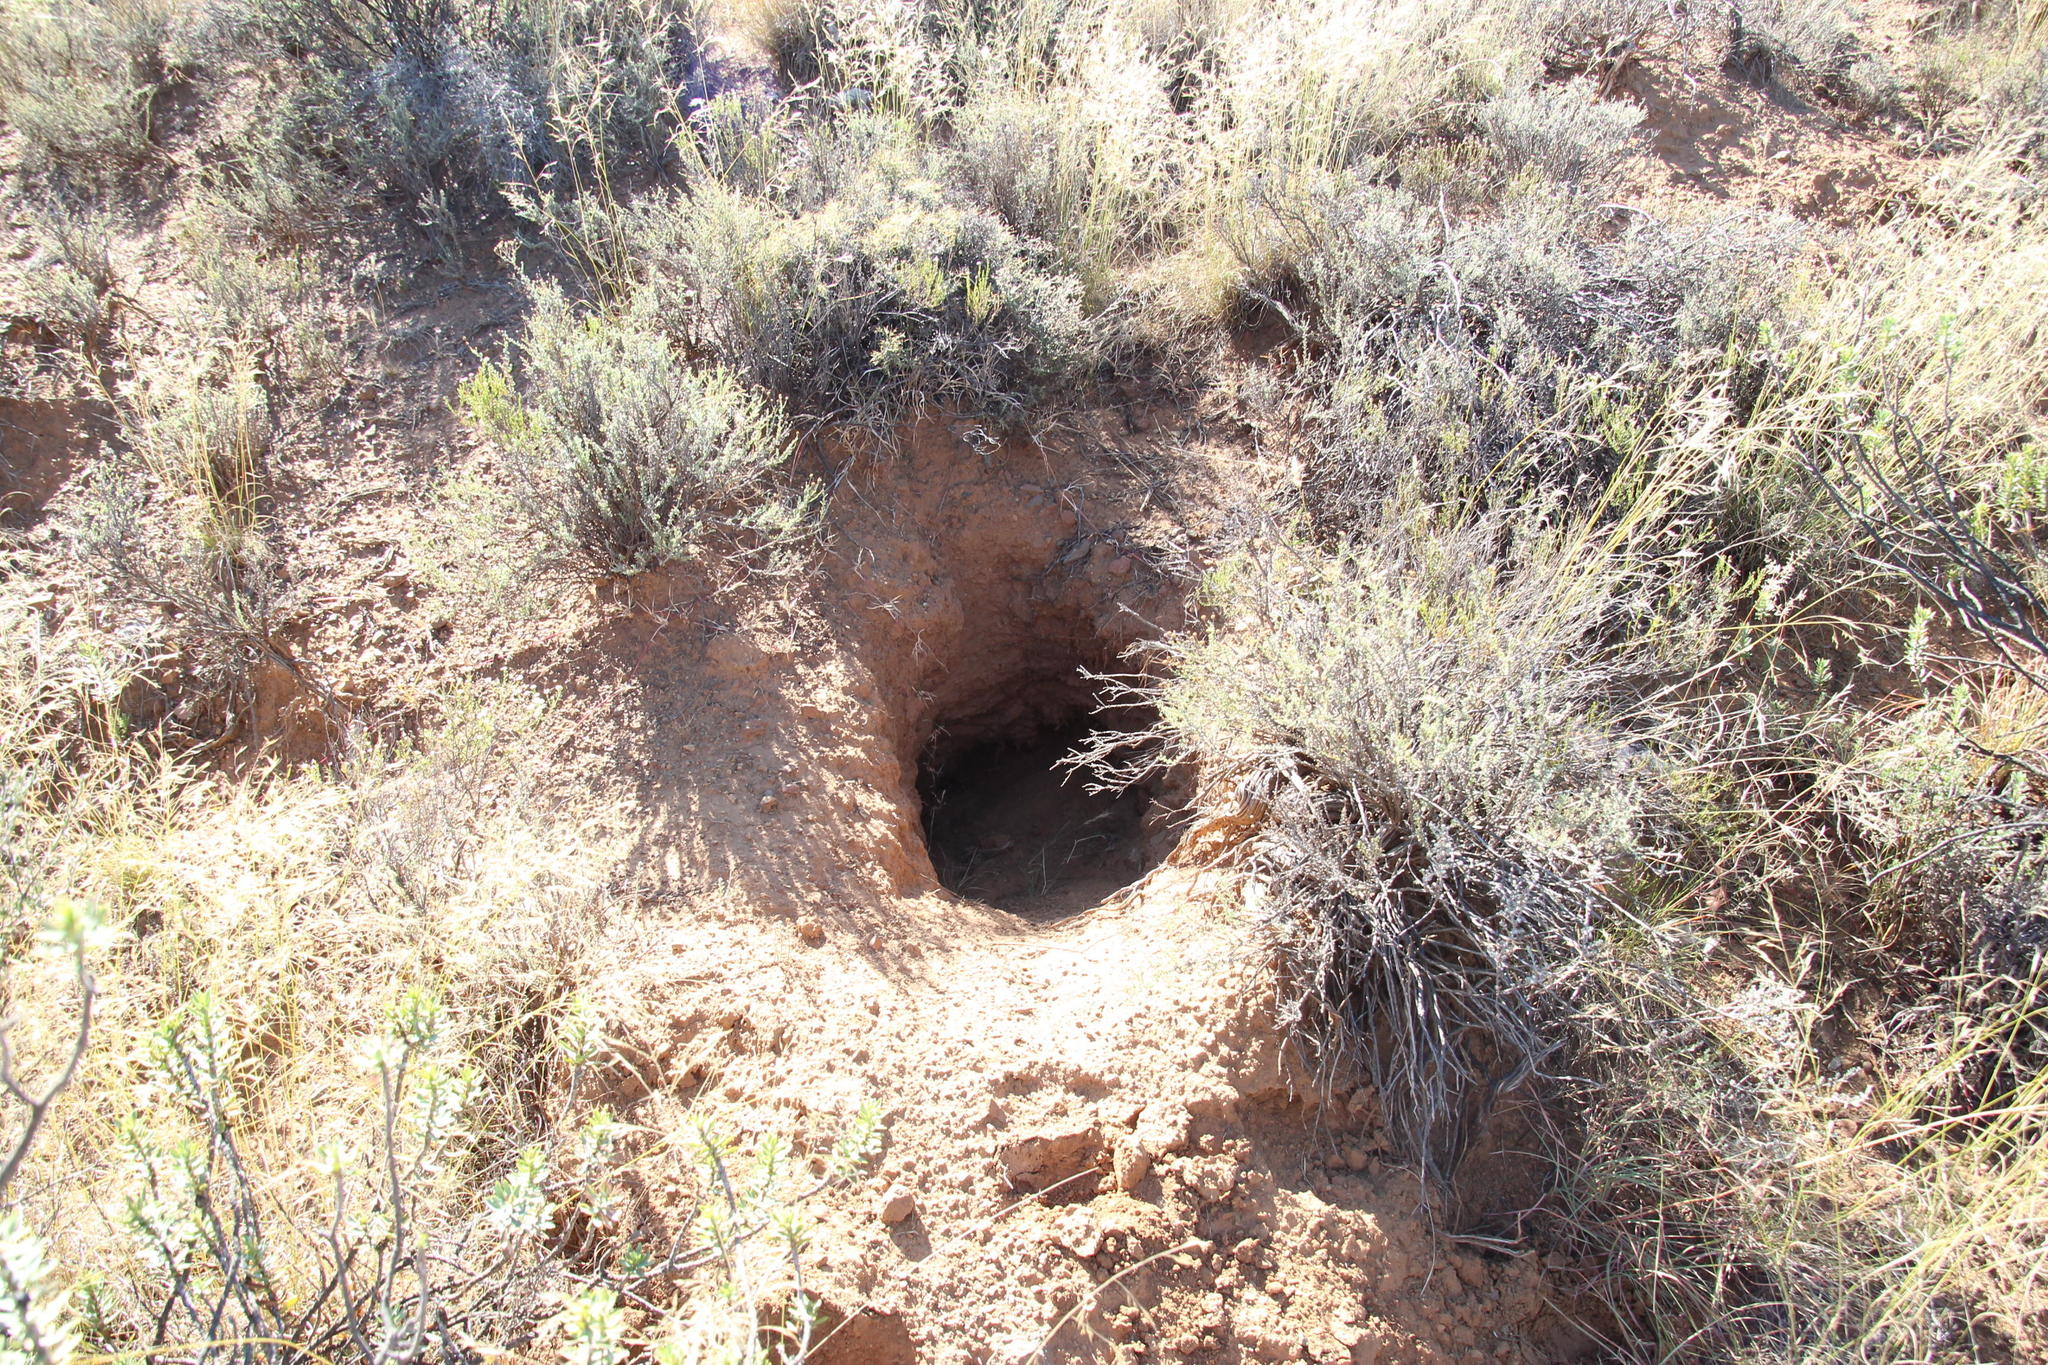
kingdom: Animalia
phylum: Chordata
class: Mammalia
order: Tubulidentata
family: Orycteropodidae
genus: Orycteropus
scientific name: Orycteropus afer
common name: Aardvark
